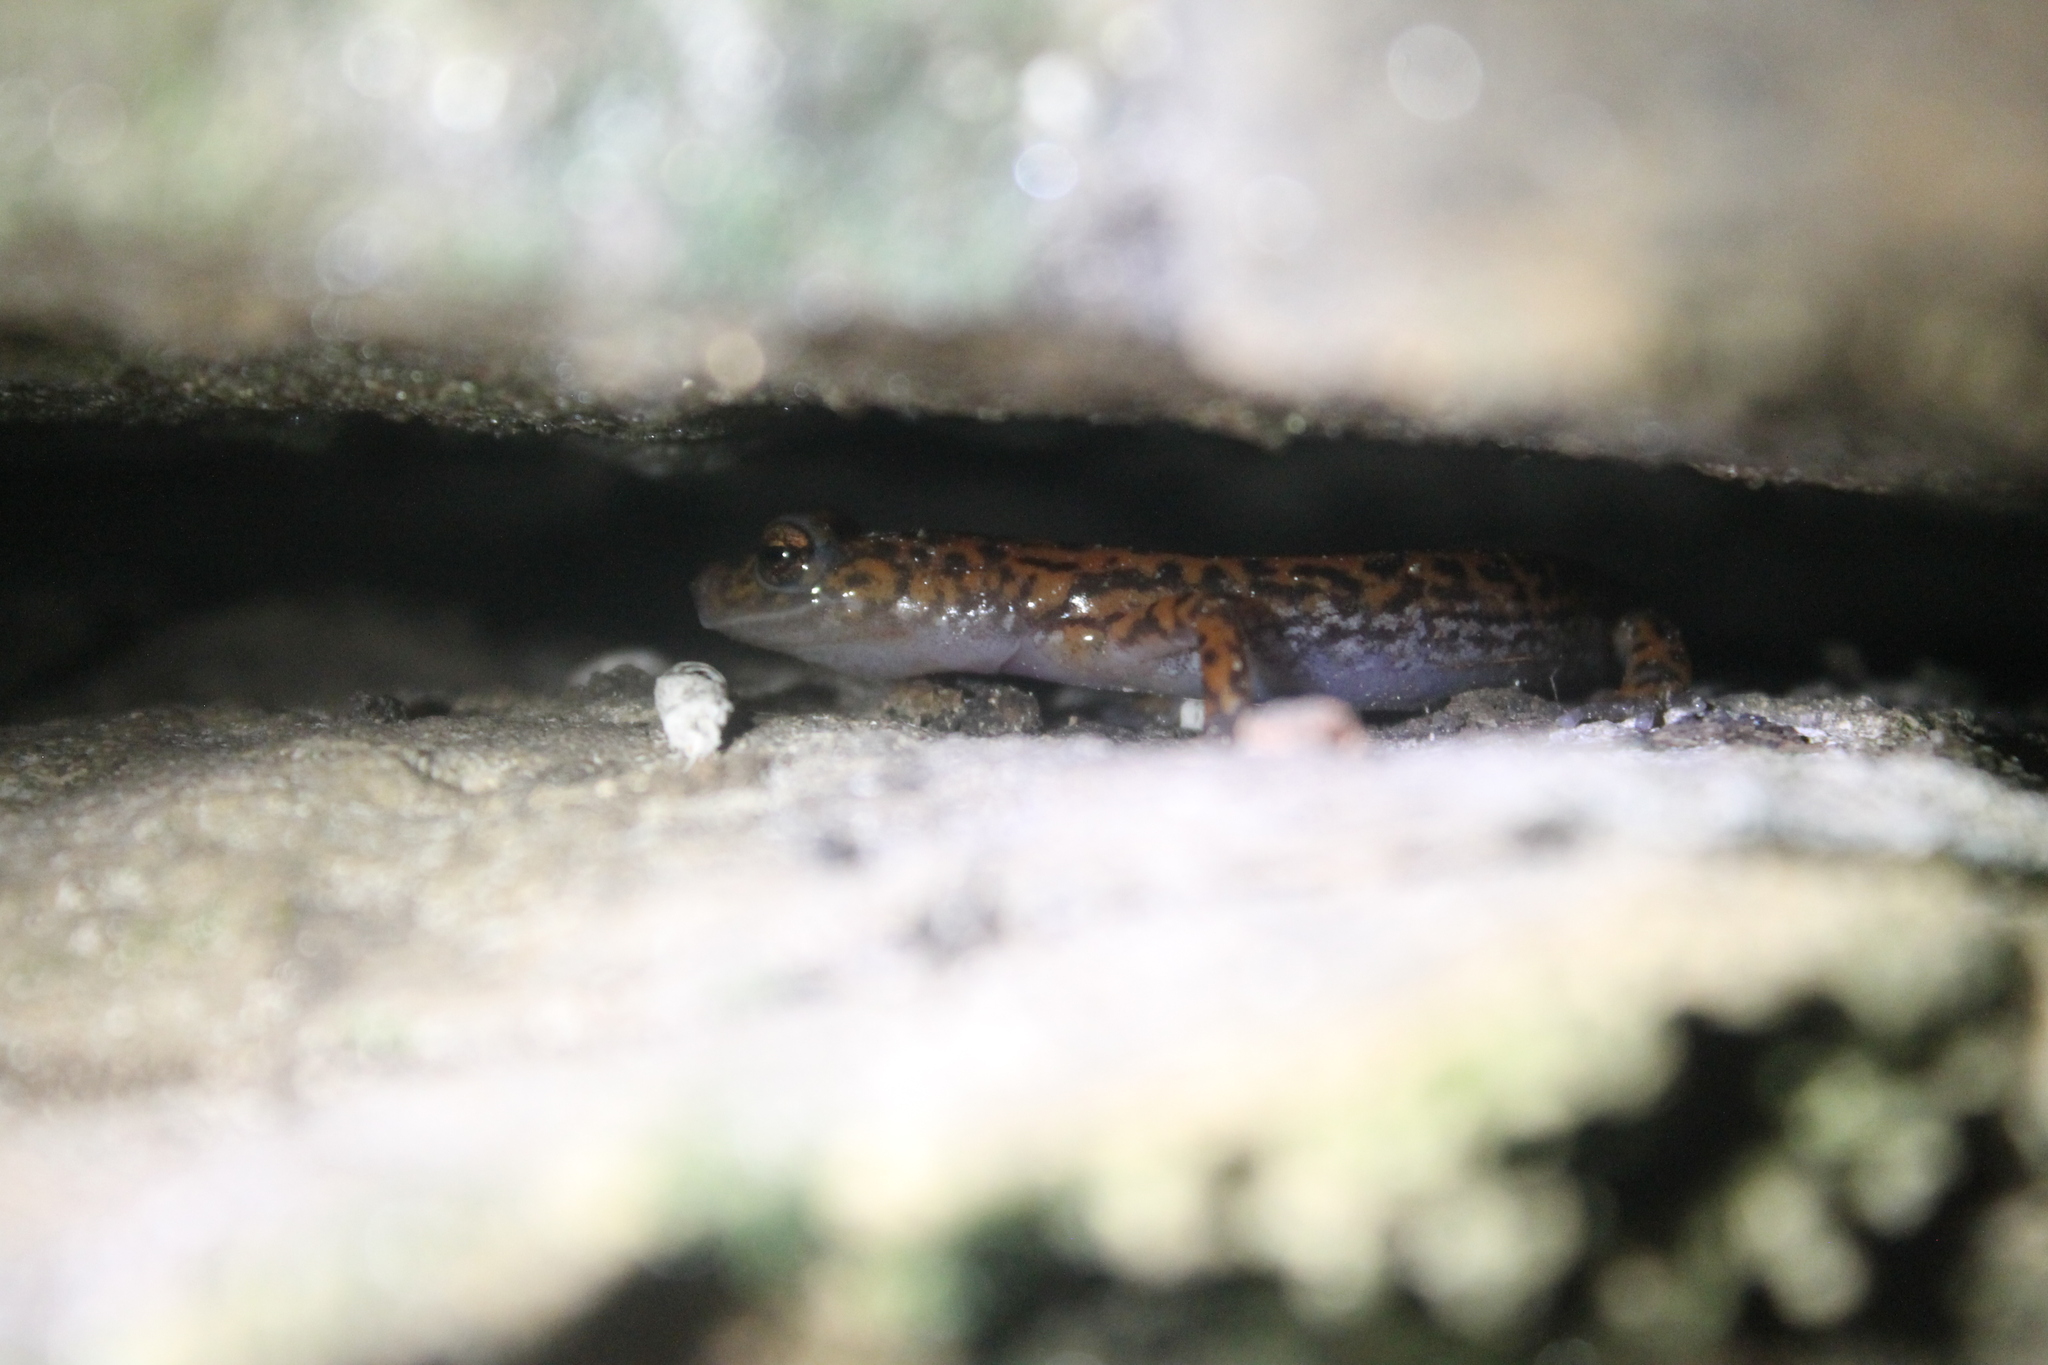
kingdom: Animalia
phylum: Chordata
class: Amphibia
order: Caudata
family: Plethodontidae
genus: Eurycea
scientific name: Eurycea lucifuga
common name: Cave salamander
